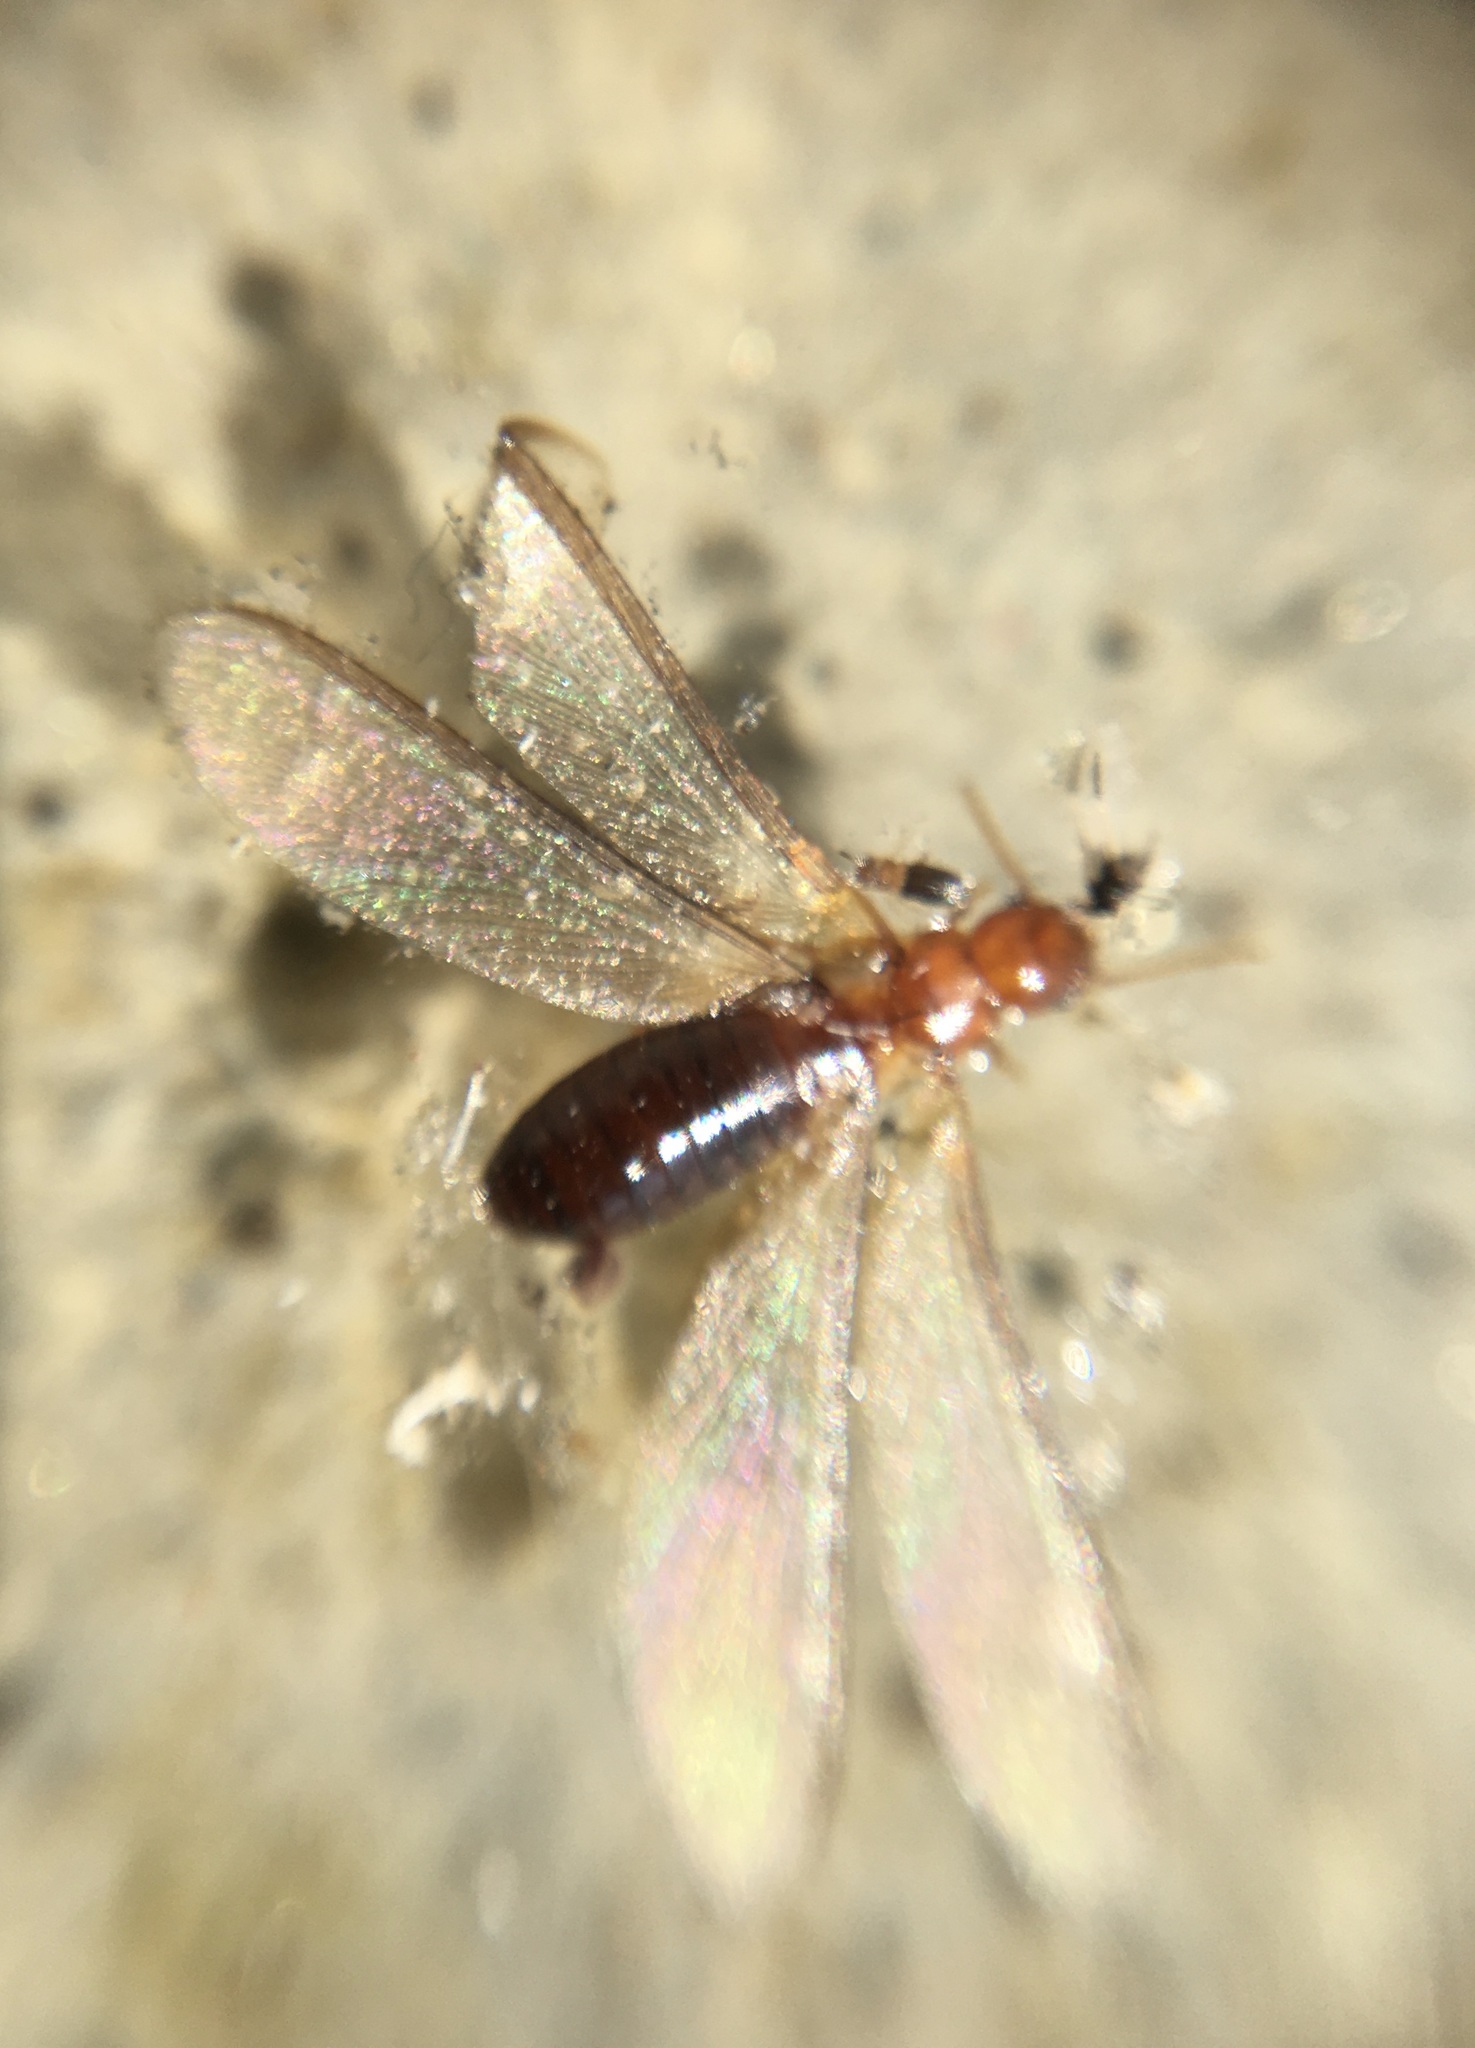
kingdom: Animalia
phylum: Arthropoda
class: Insecta
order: Blattodea
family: Kalotermitidae
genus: Incisitermes
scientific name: Incisitermes minor
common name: Termite
